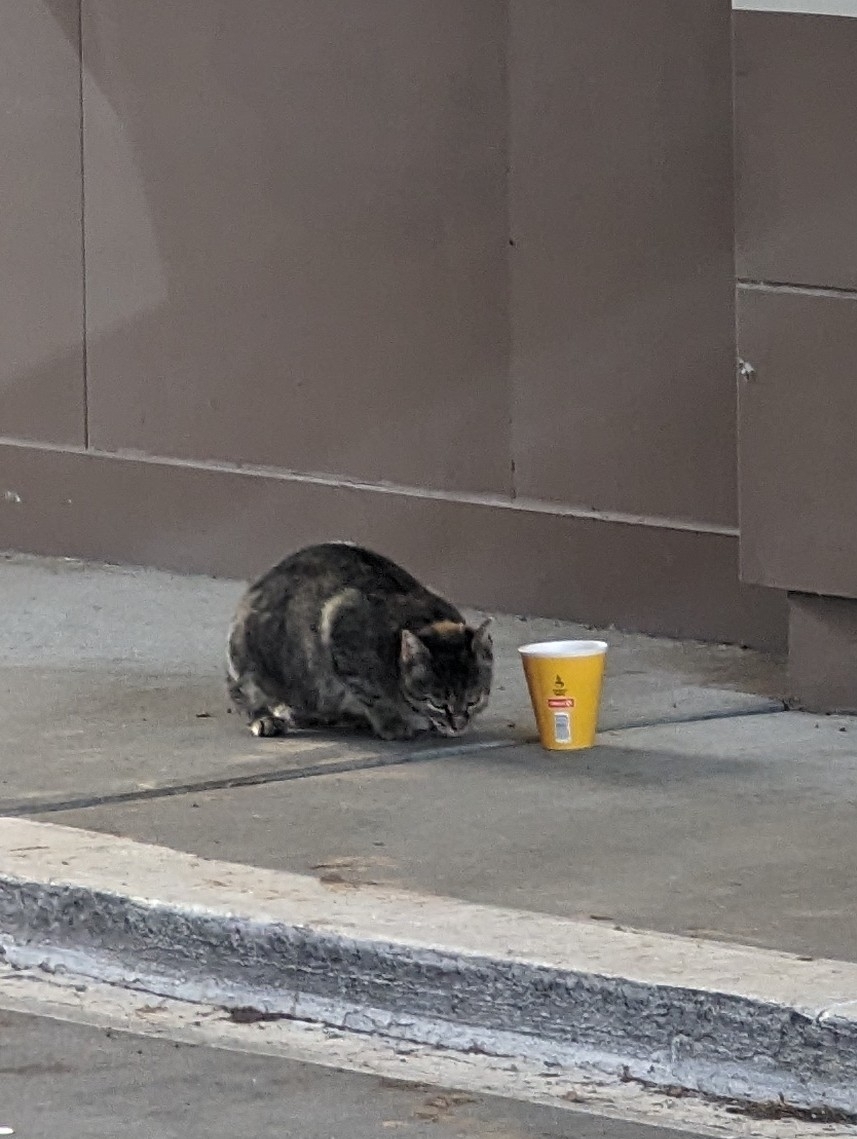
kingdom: Animalia
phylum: Chordata
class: Mammalia
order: Carnivora
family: Felidae
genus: Felis
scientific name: Felis catus
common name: Domestic cat
